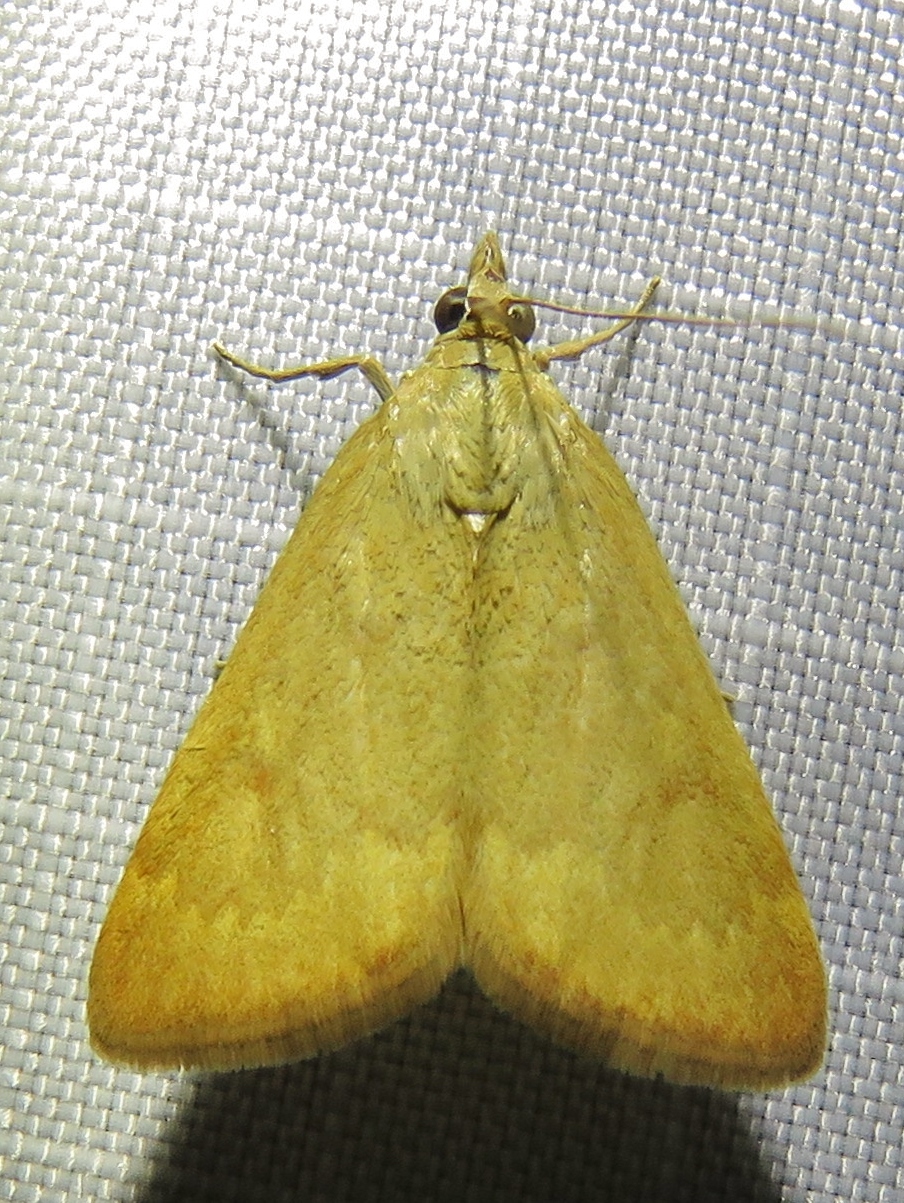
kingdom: Animalia
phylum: Arthropoda
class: Insecta
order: Lepidoptera
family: Crambidae
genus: Achyra
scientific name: Achyra rantalis
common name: Garden webworm
